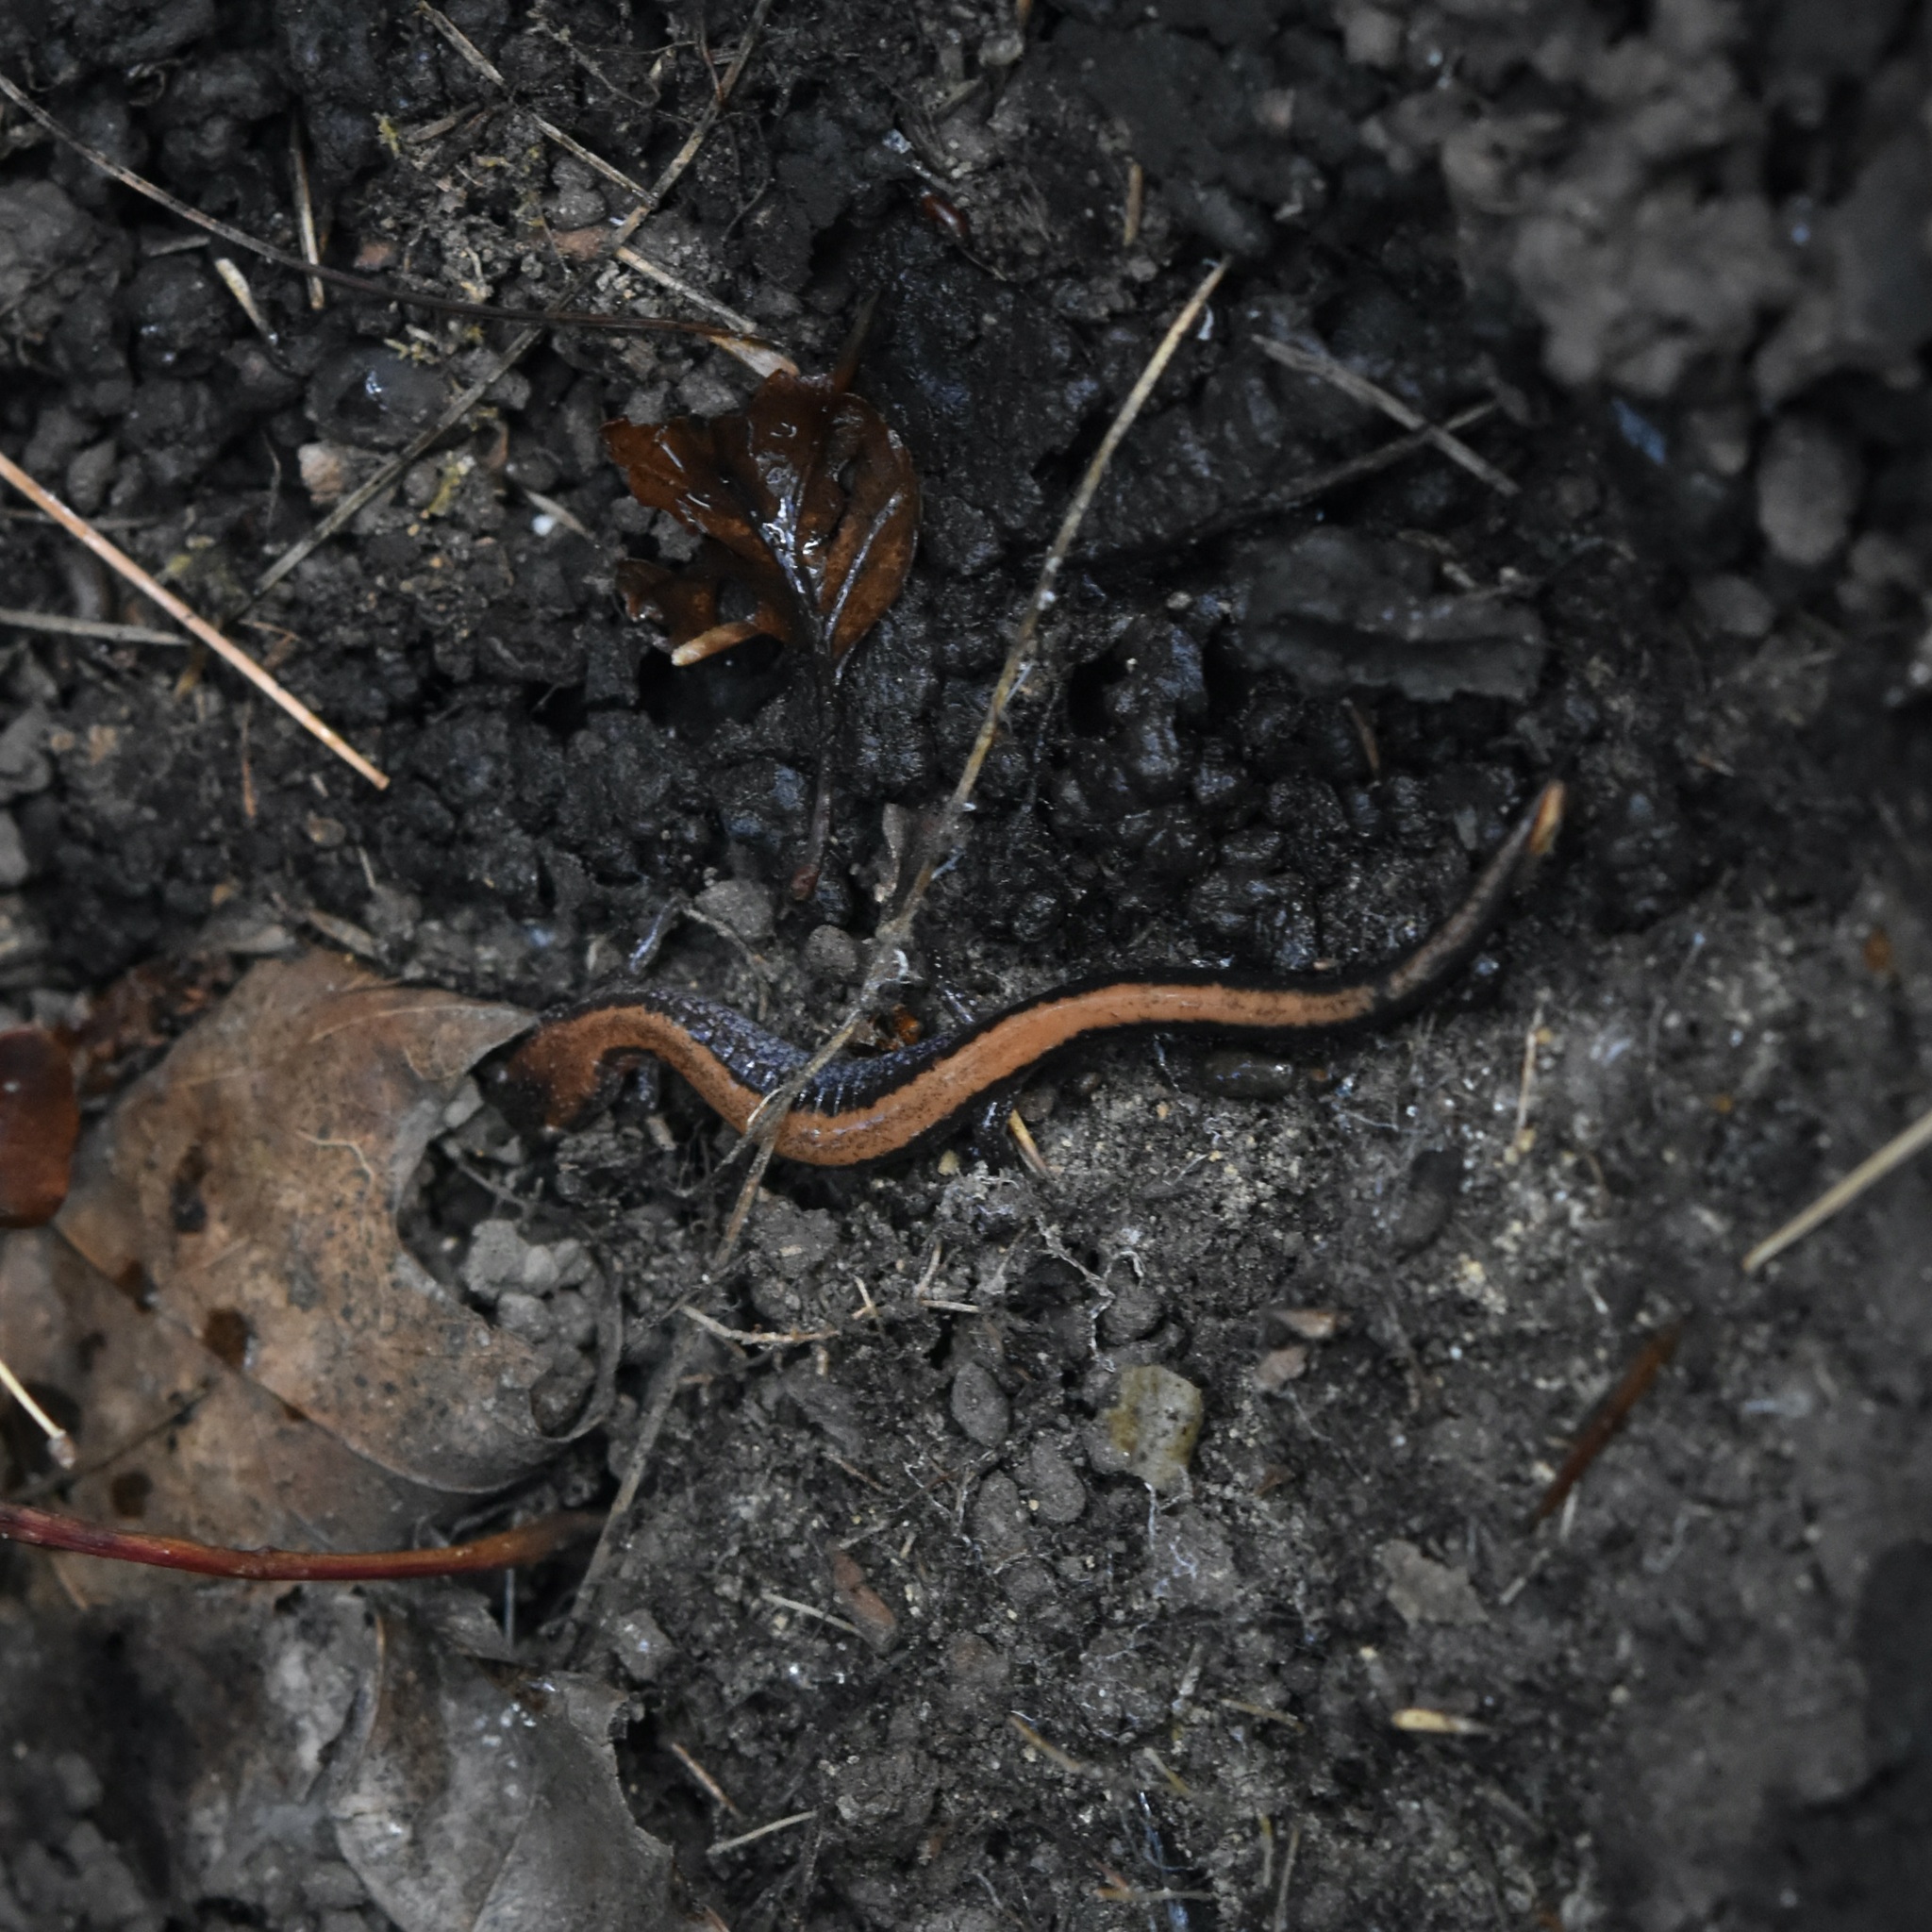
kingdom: Animalia
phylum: Chordata
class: Amphibia
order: Caudata
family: Plethodontidae
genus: Plethodon
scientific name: Plethodon cinereus
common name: Redback salamander
